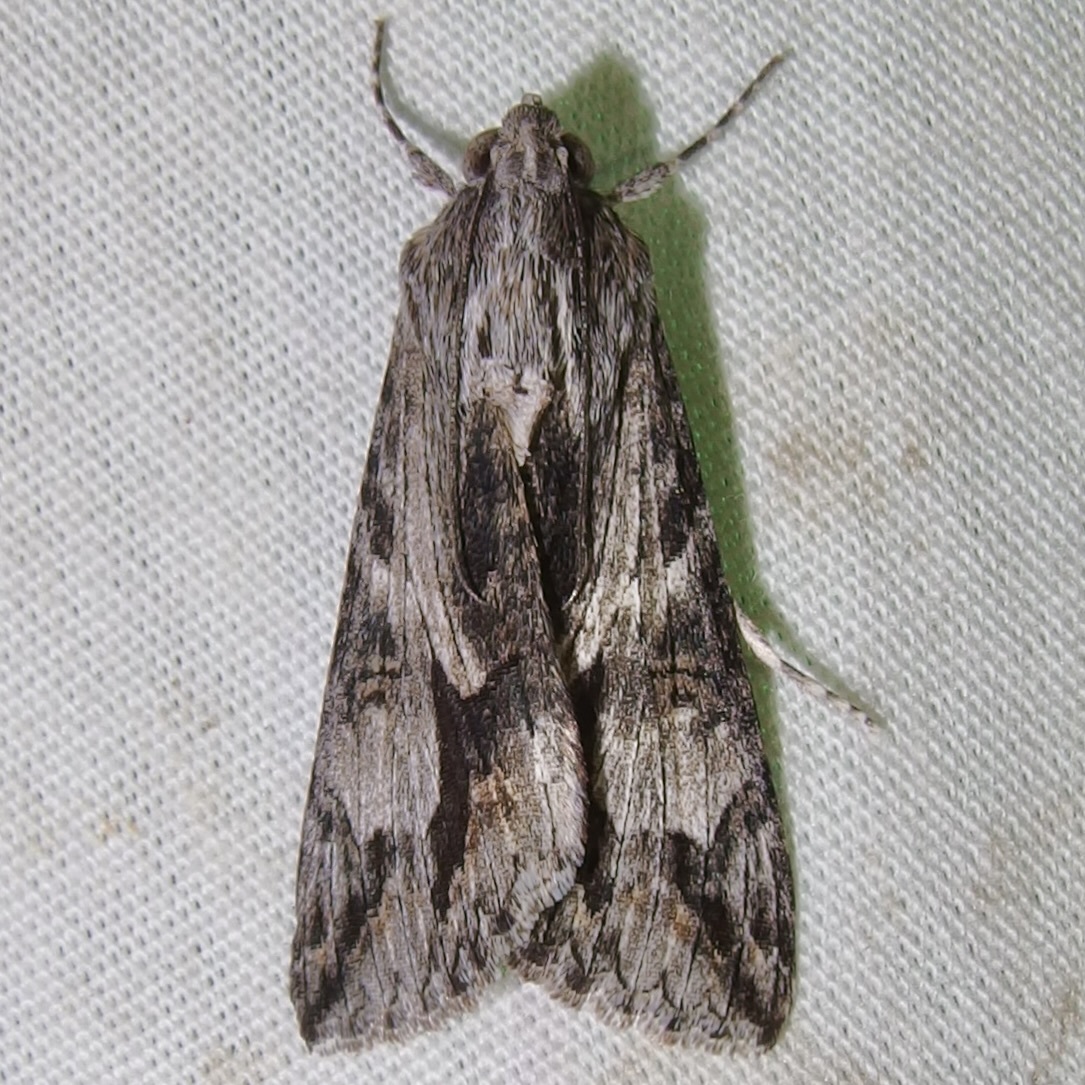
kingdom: Animalia
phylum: Arthropoda
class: Insecta
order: Lepidoptera
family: Erebidae
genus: Melipotis
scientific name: Melipotis jucunda
